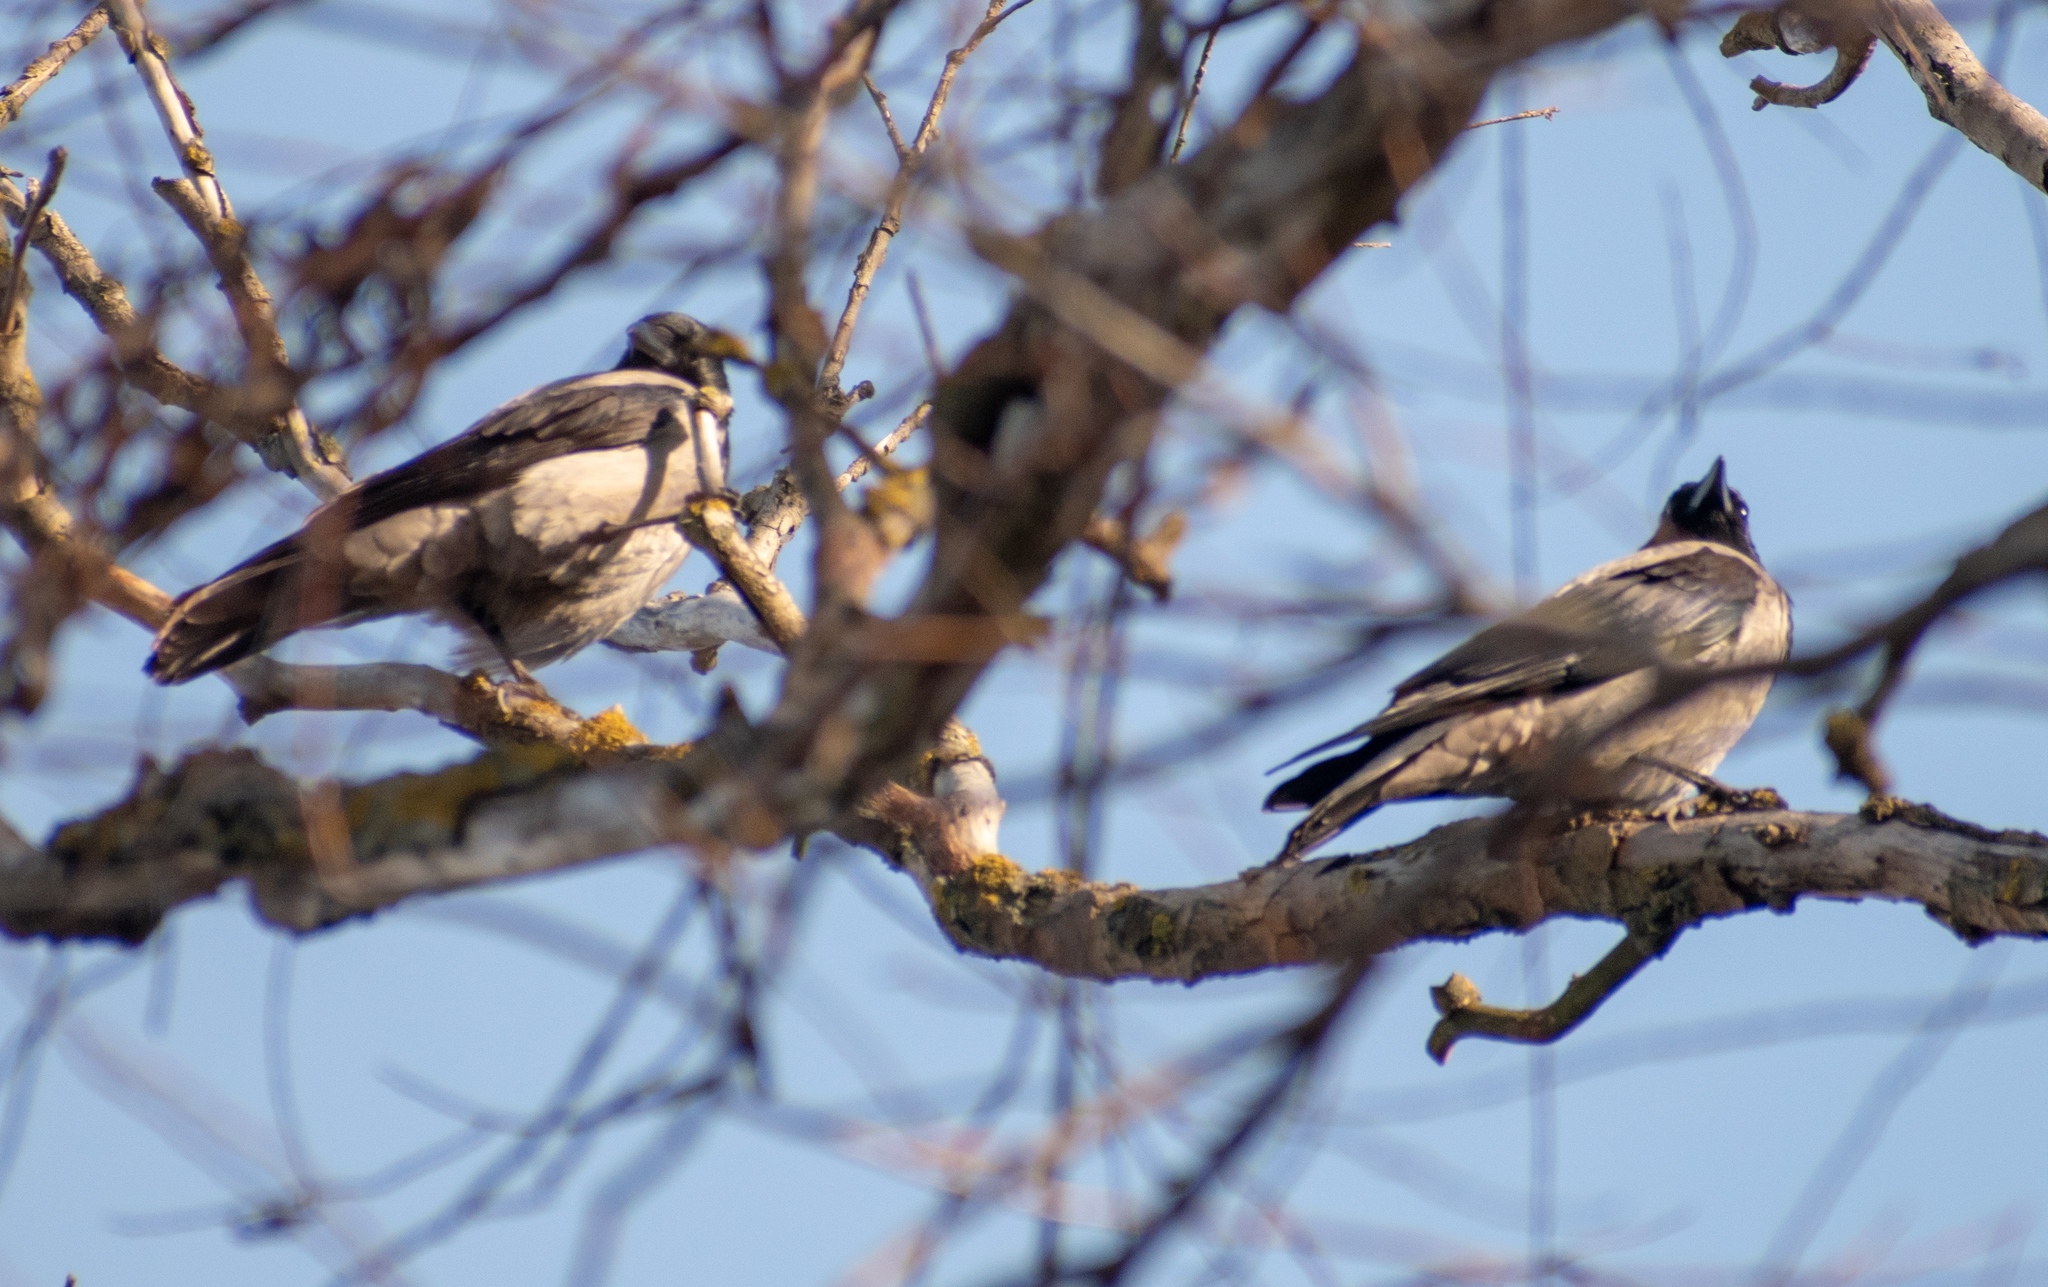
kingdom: Animalia
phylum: Chordata
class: Aves
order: Passeriformes
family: Corvidae
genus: Corvus
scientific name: Corvus cornix
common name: Hooded crow
